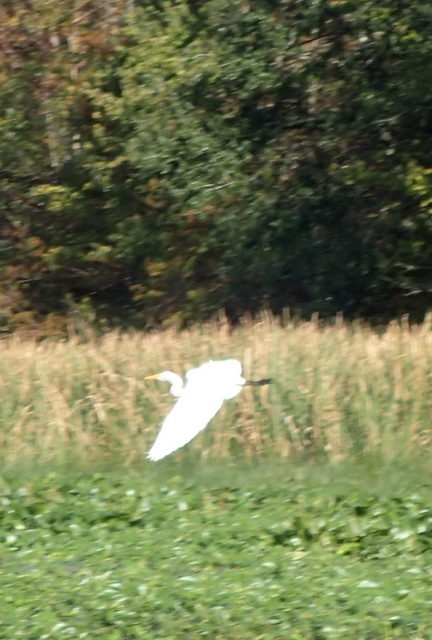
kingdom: Animalia
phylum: Chordata
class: Aves
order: Pelecaniformes
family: Ardeidae
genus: Ardea
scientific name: Ardea alba
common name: Great egret
